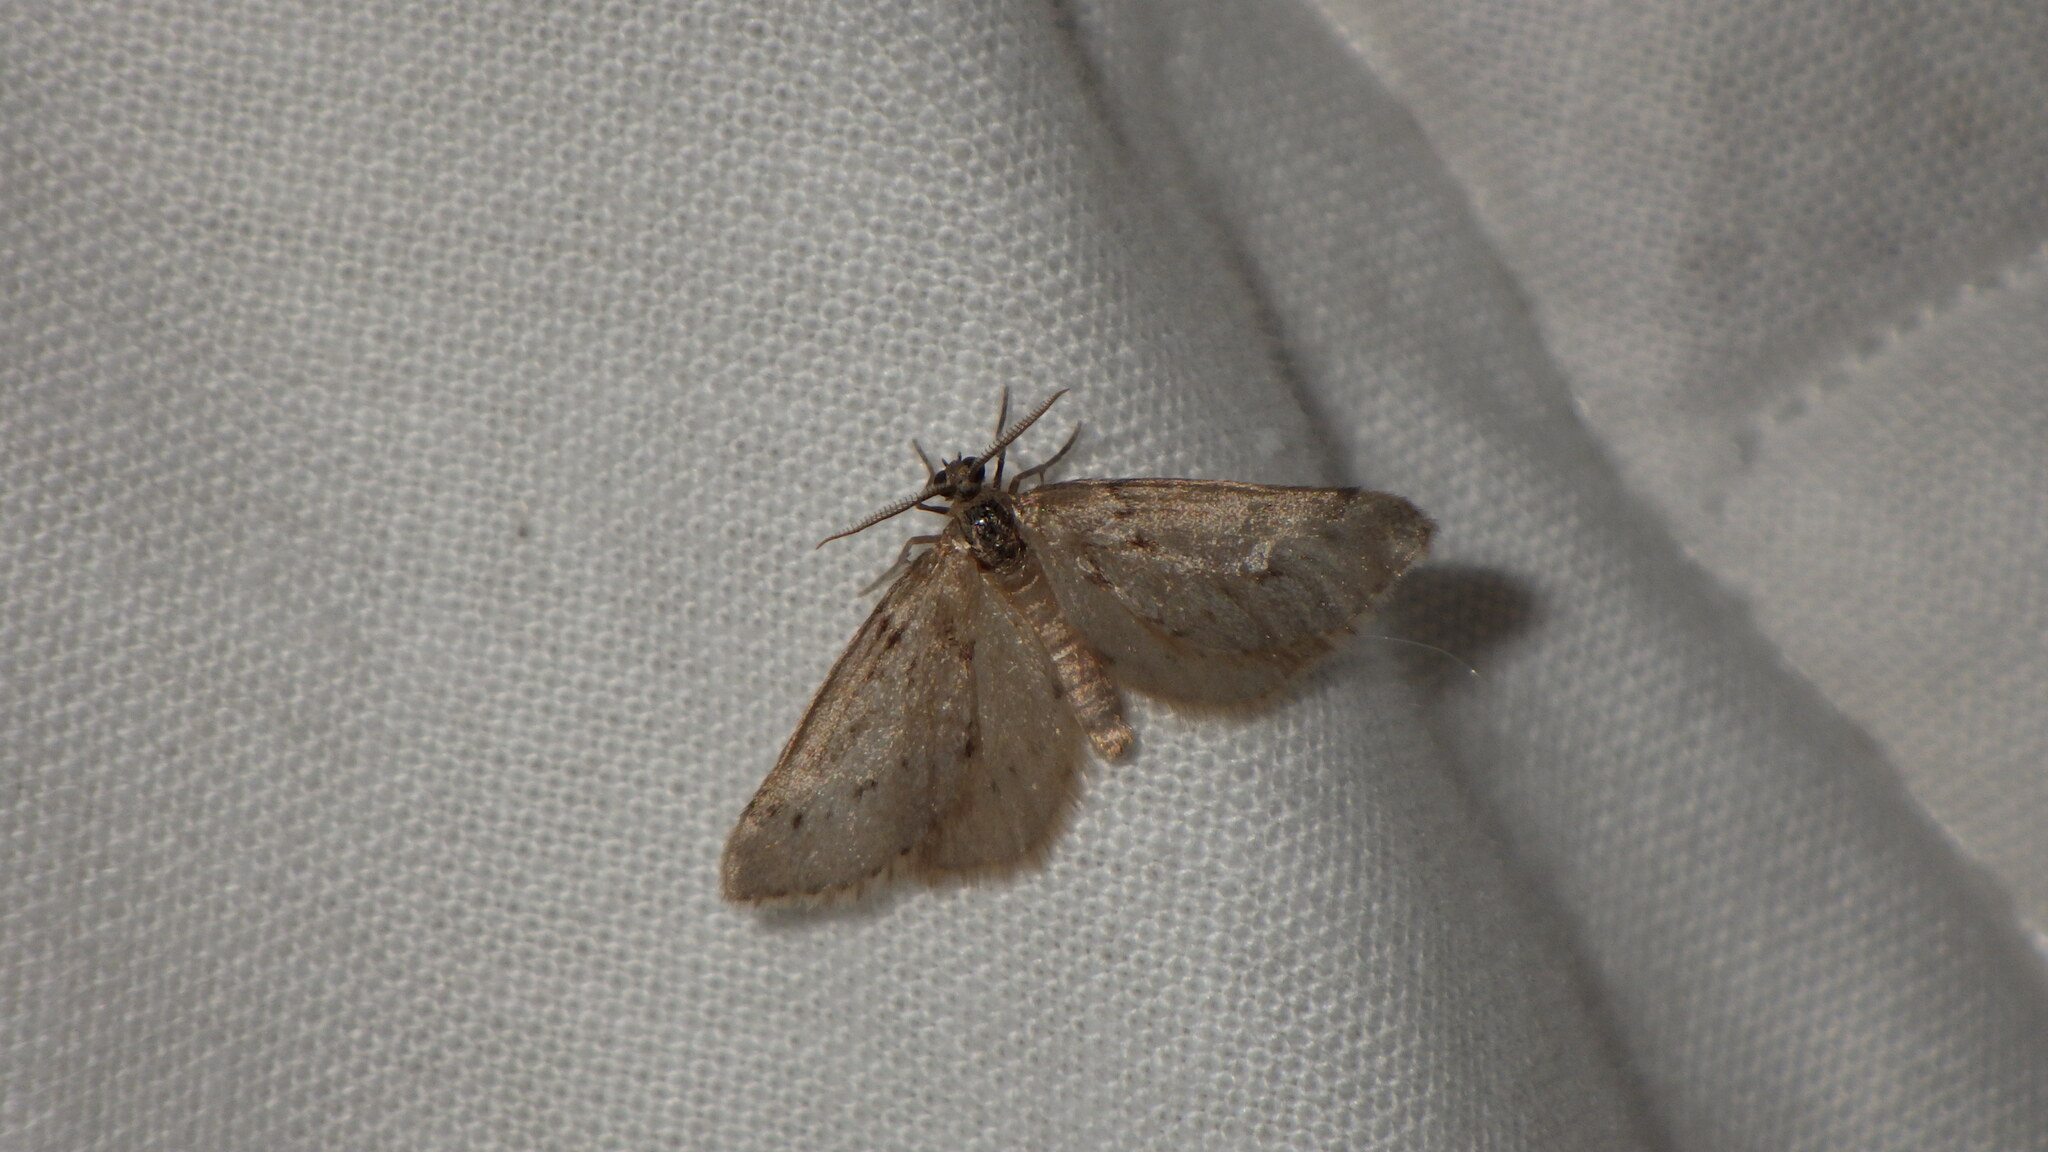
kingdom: Animalia
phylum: Arthropoda
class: Insecta
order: Lepidoptera
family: Geometridae
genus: Tephronia
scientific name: Tephronia oranaria
